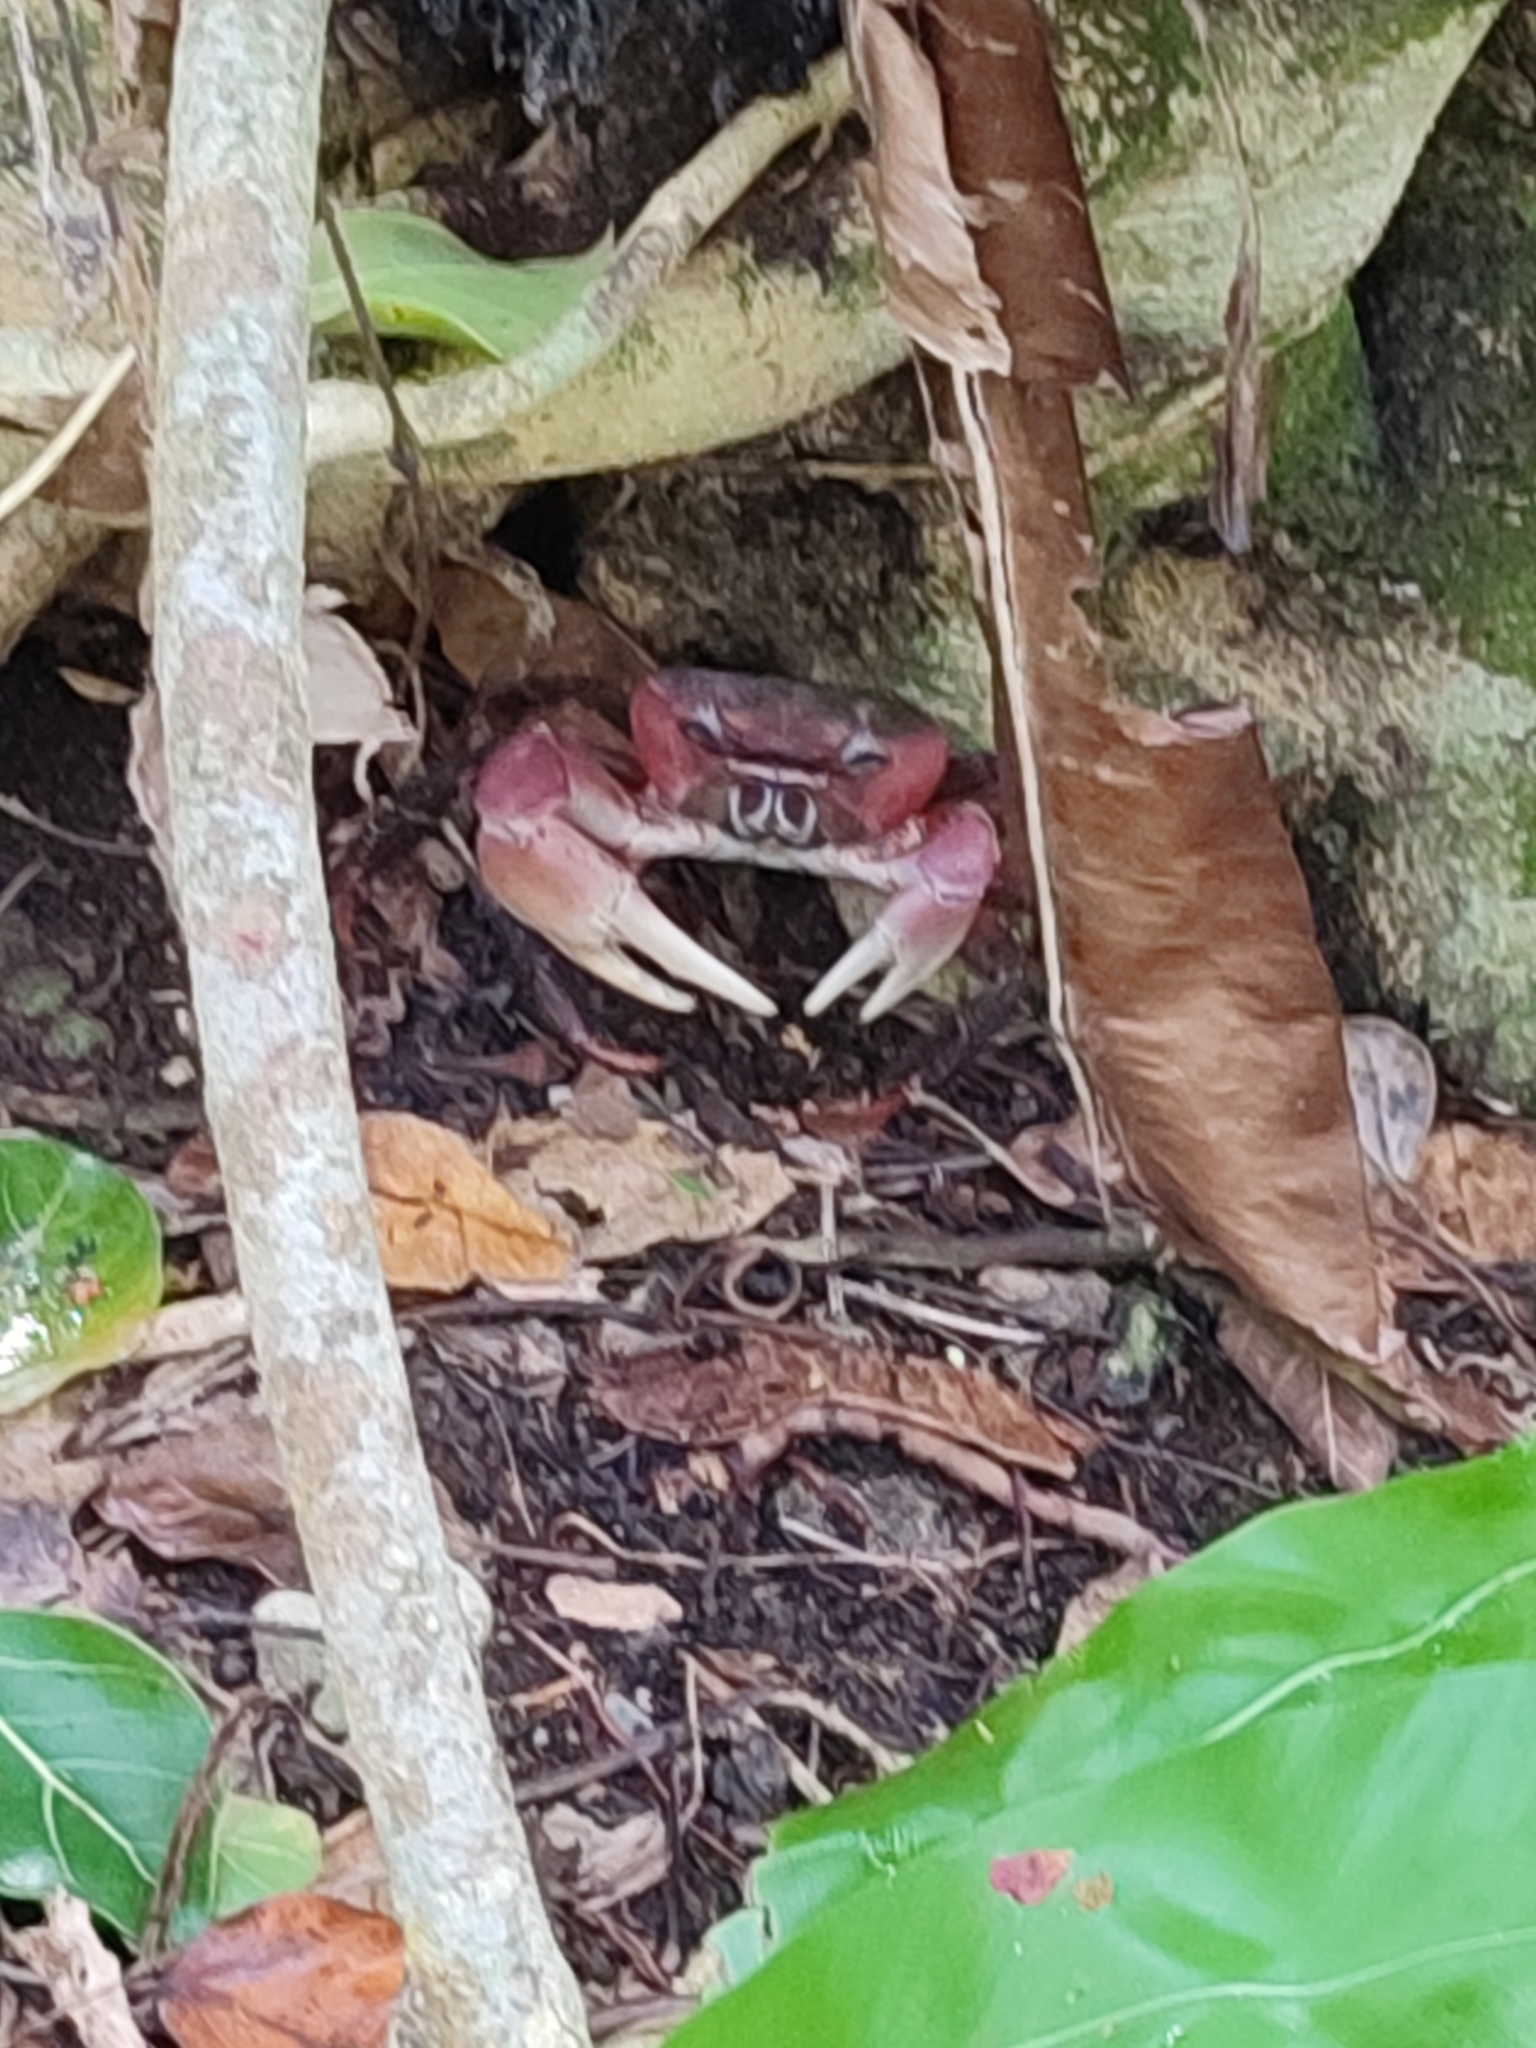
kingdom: Animalia
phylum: Arthropoda
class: Malacostraca
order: Decapoda
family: Gecarcinidae
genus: Cardisoma
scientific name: Cardisoma carnifex
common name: Brown land crab
